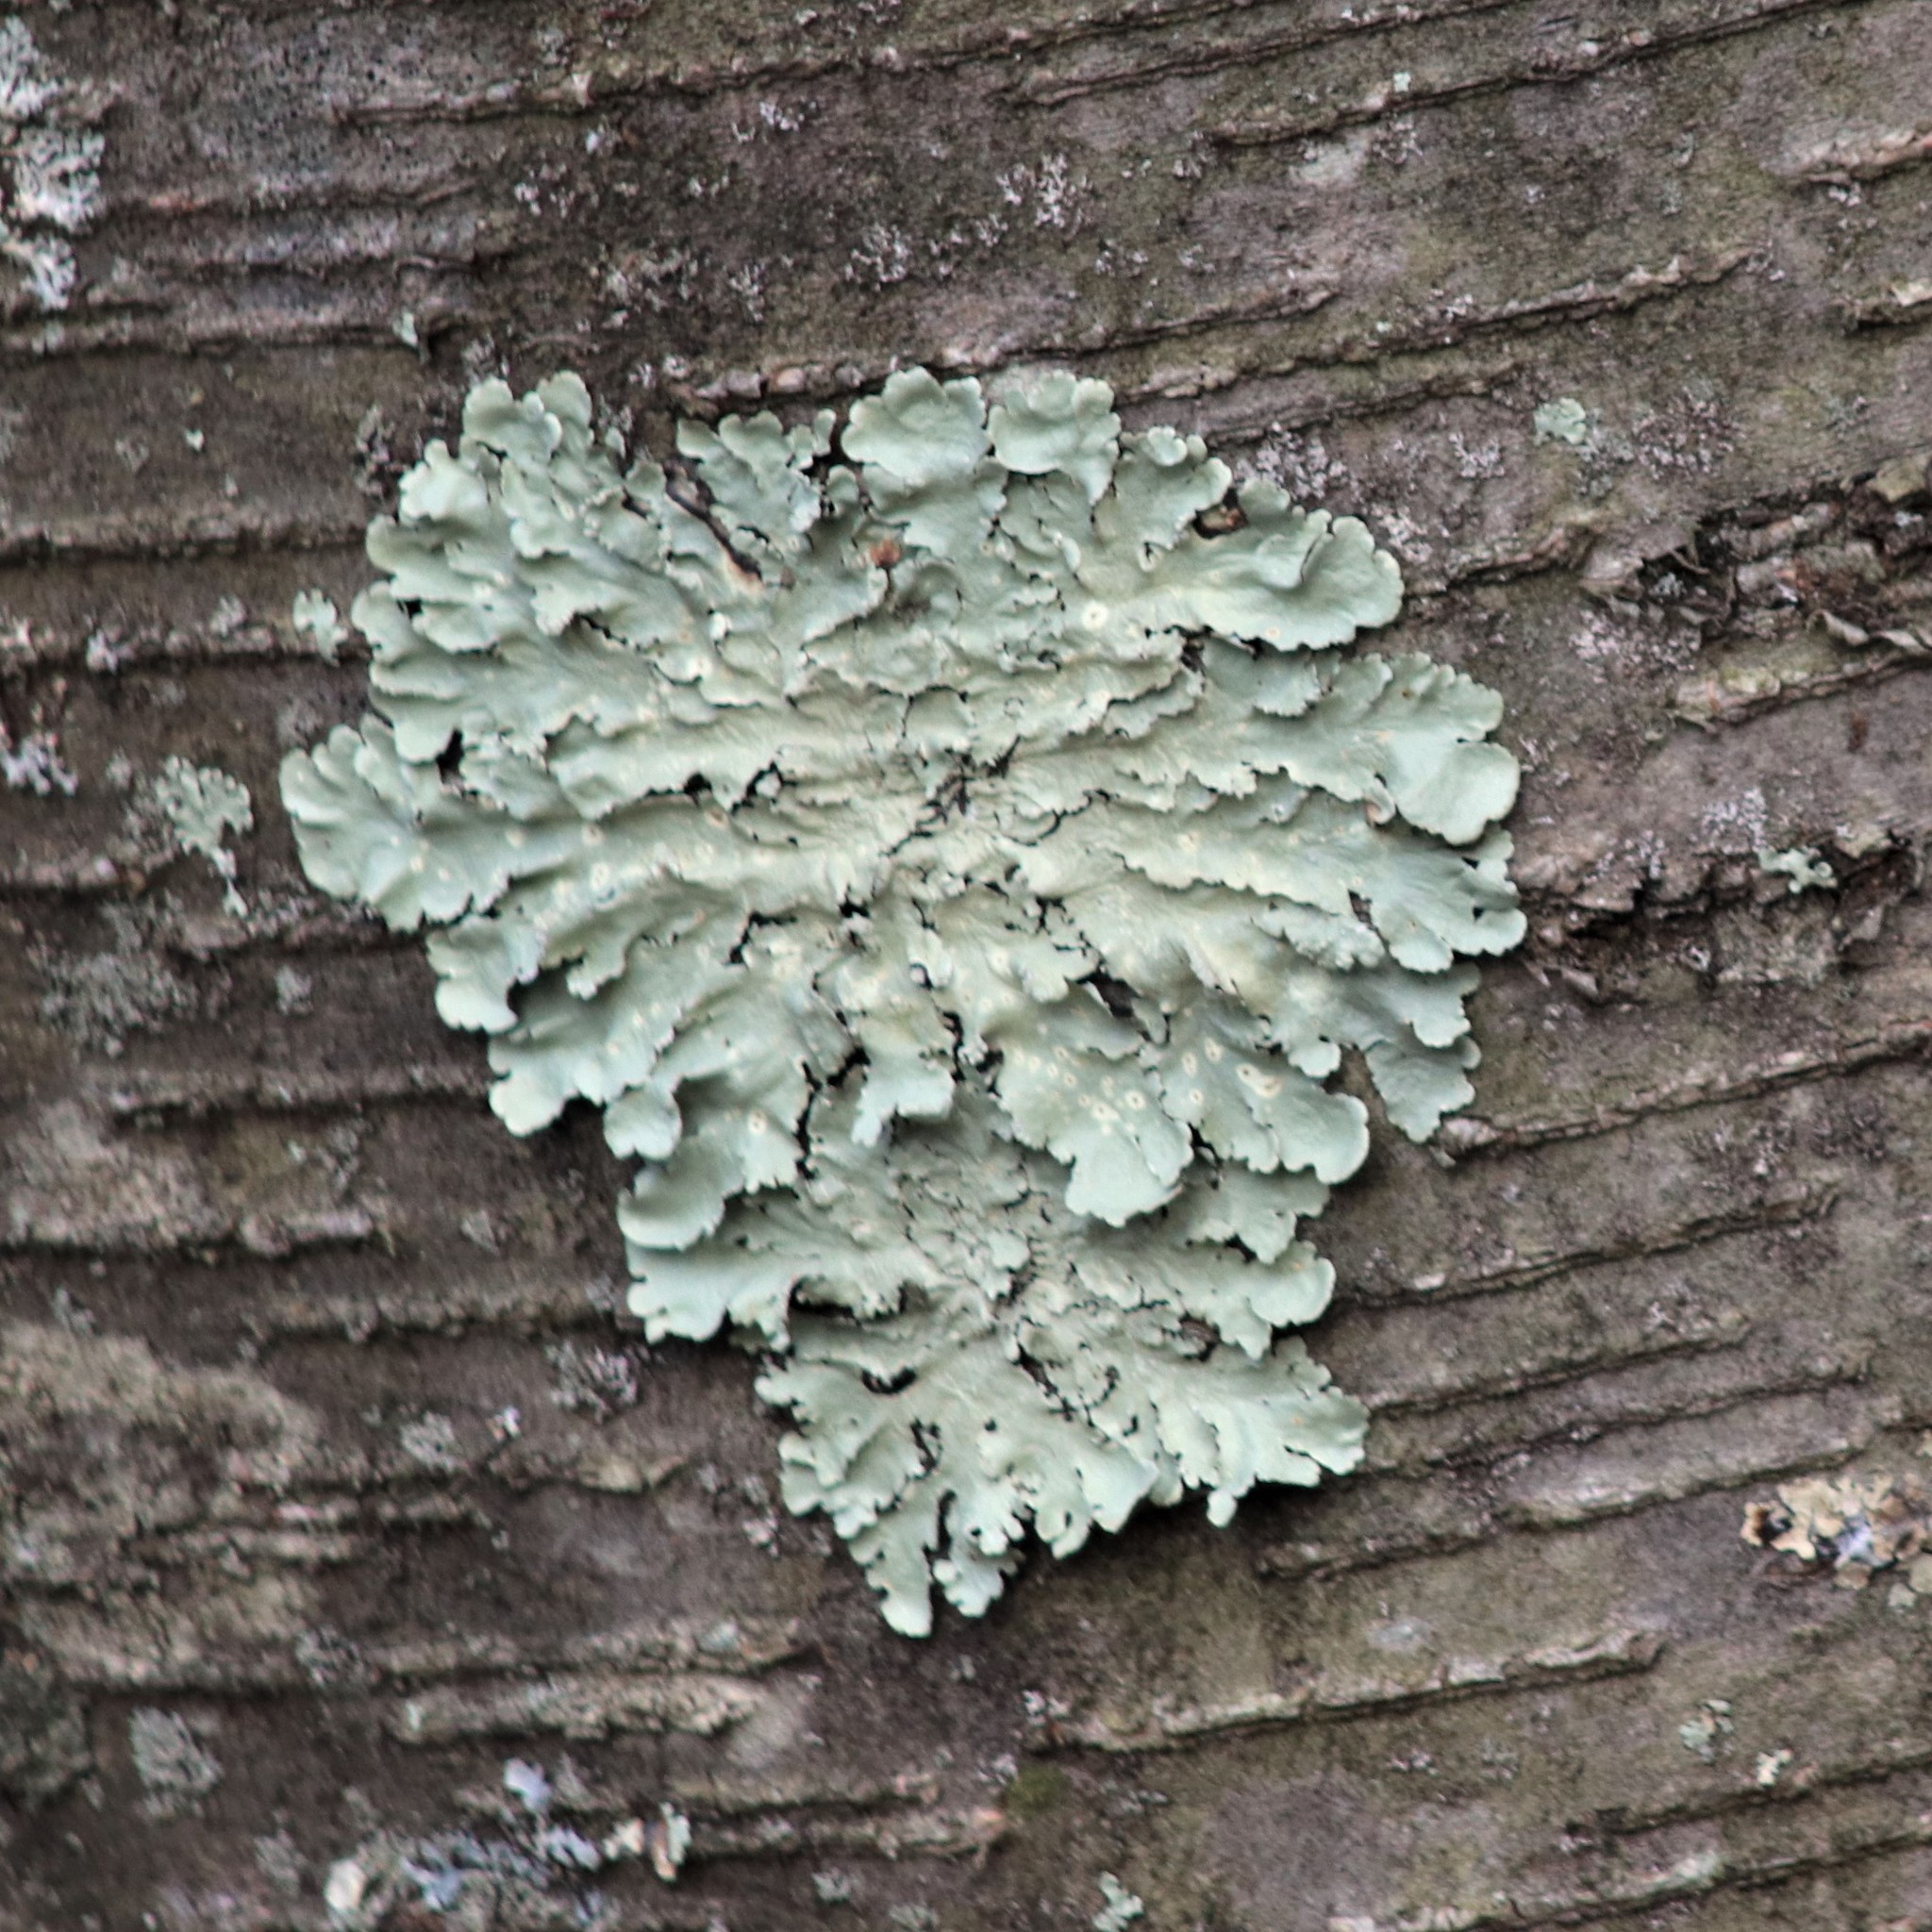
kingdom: Fungi
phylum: Ascomycota
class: Lecanoromycetes
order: Lecanorales
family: Parmeliaceae
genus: Flavoparmelia
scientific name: Flavoparmelia caperata
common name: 40-mile per hour lichen
